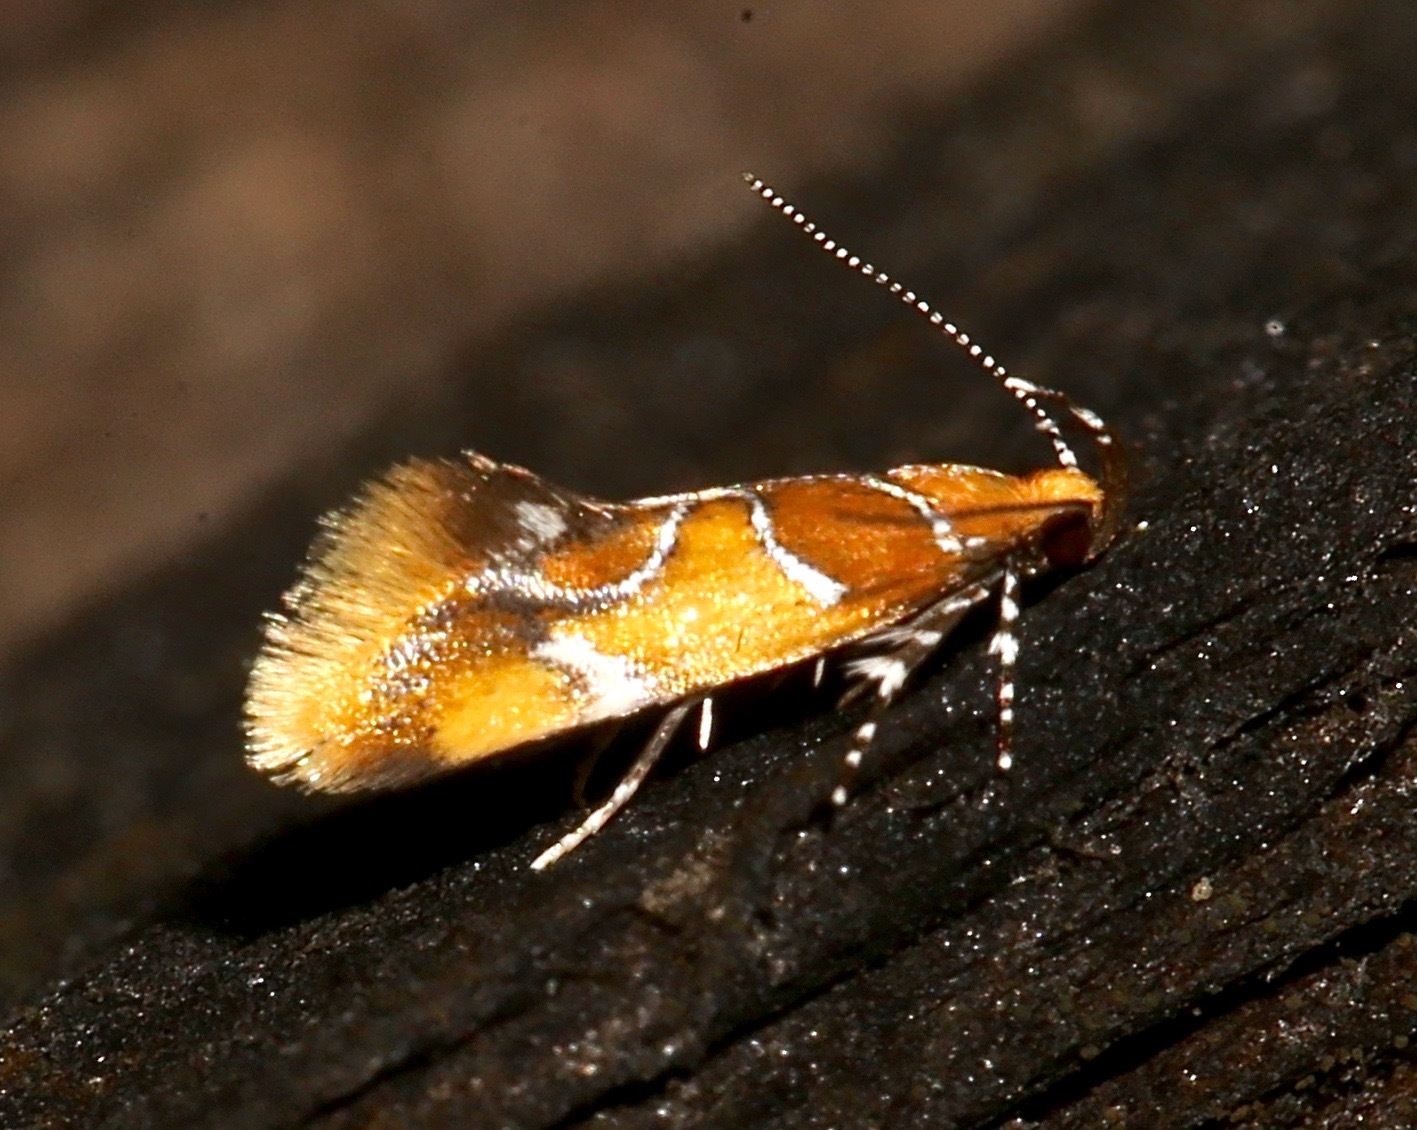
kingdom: Animalia
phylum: Arthropoda
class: Insecta
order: Lepidoptera
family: Oecophoridae
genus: Callima
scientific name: Callima argenticinctella
